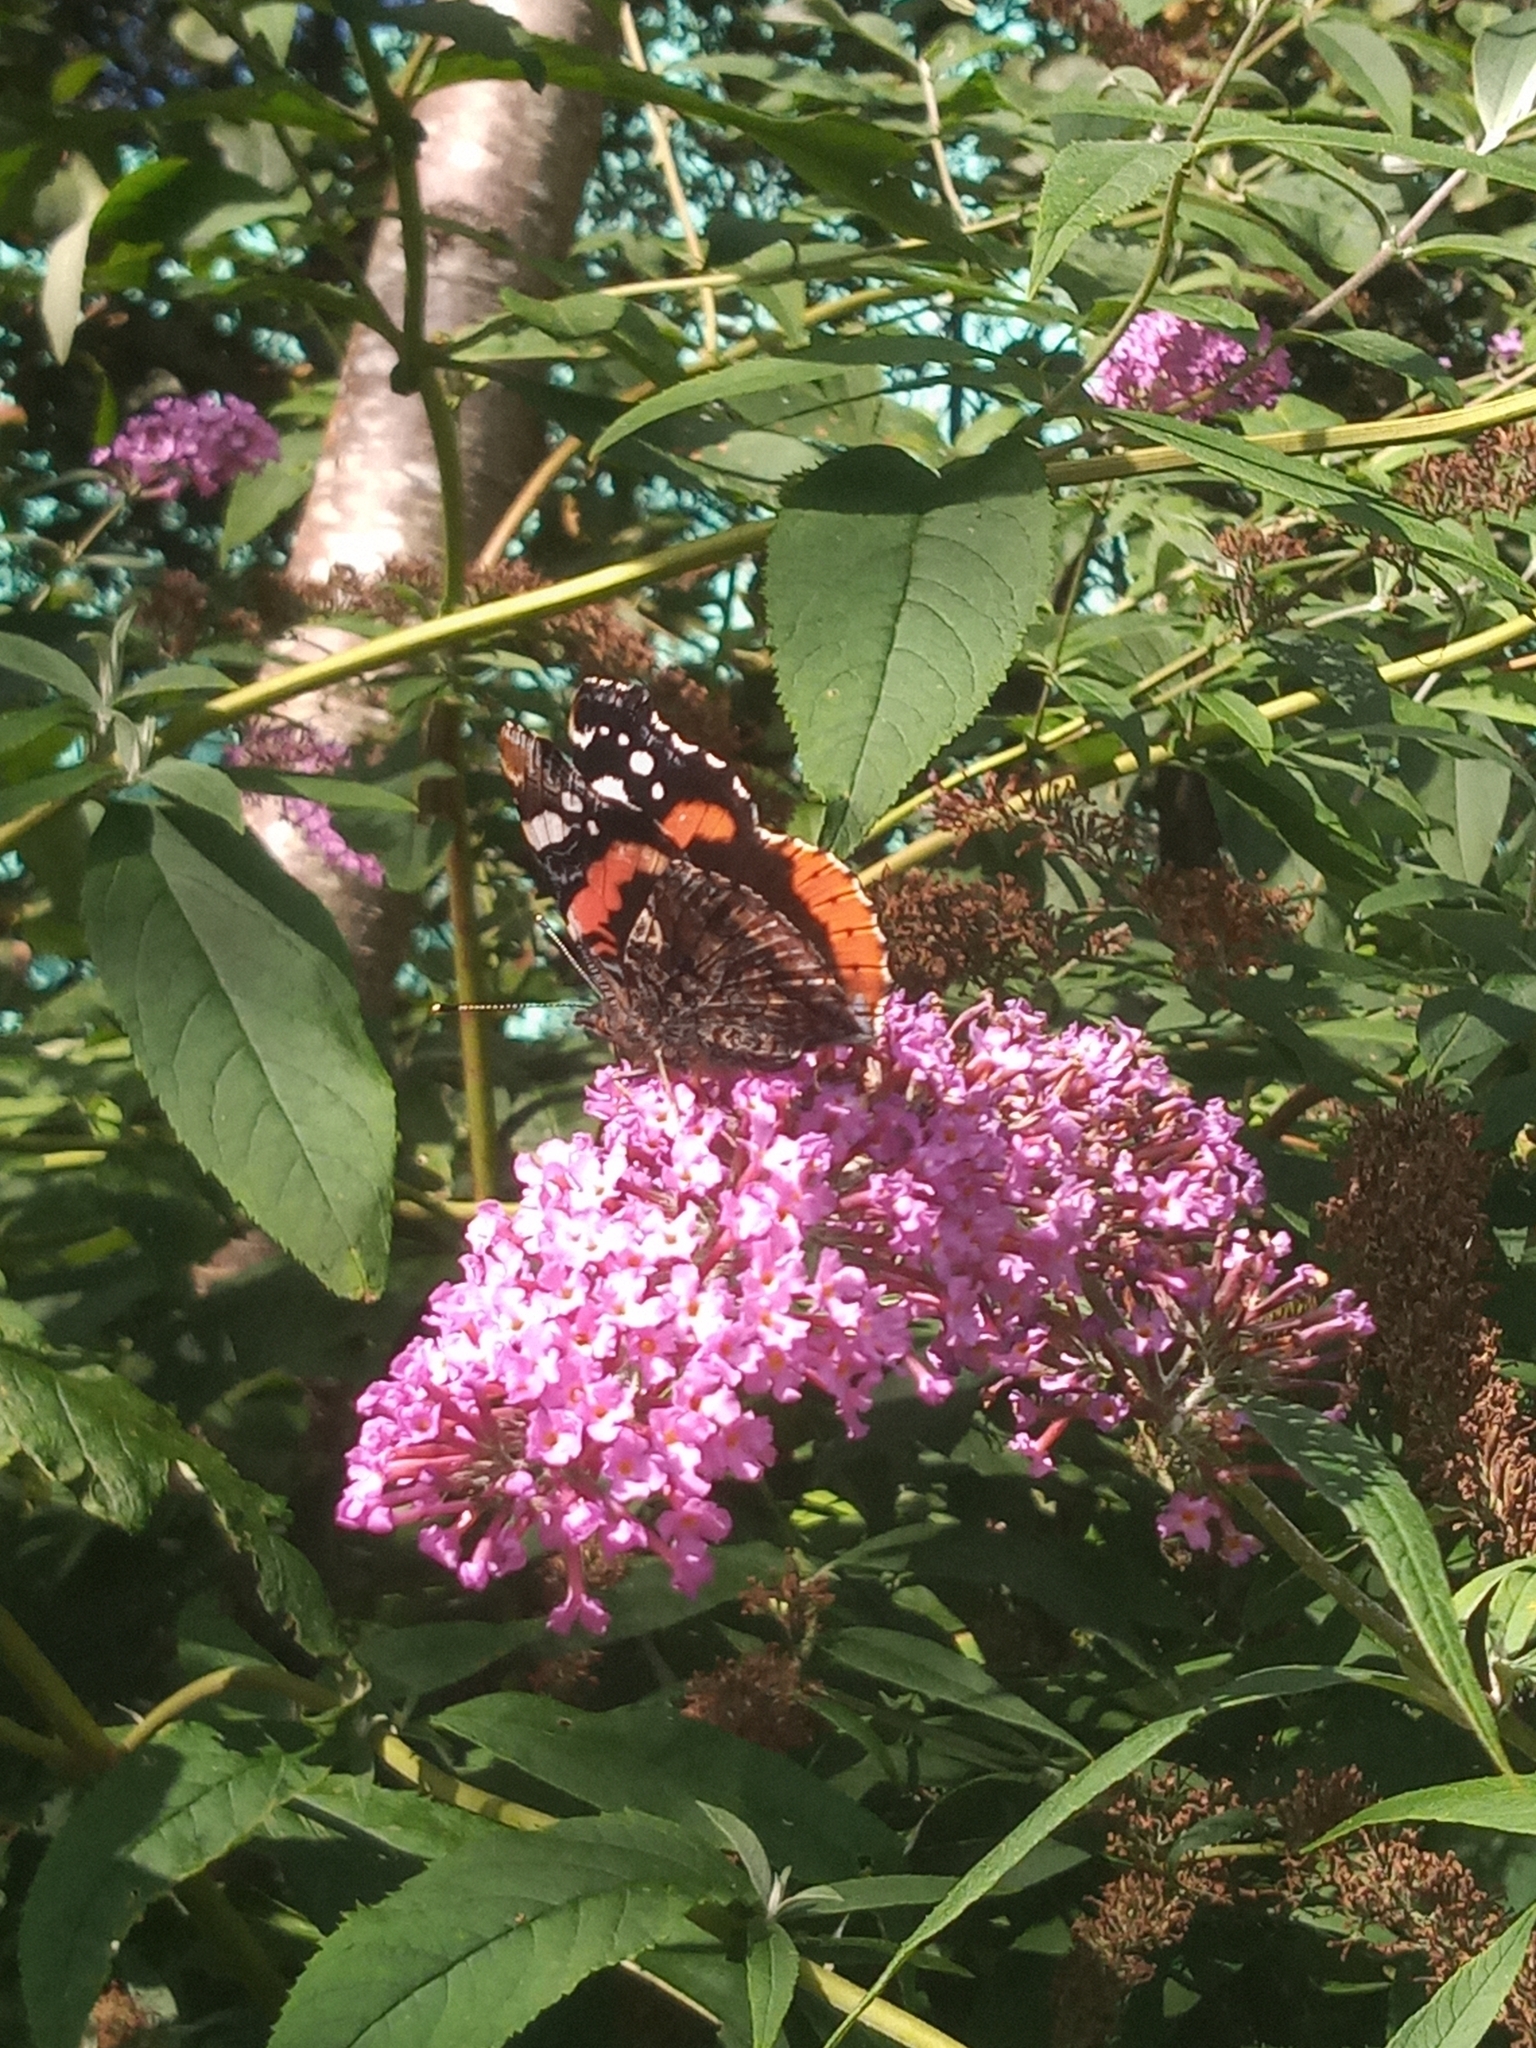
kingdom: Animalia
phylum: Arthropoda
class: Insecta
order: Lepidoptera
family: Nymphalidae
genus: Vanessa
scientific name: Vanessa atalanta
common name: Red admiral
